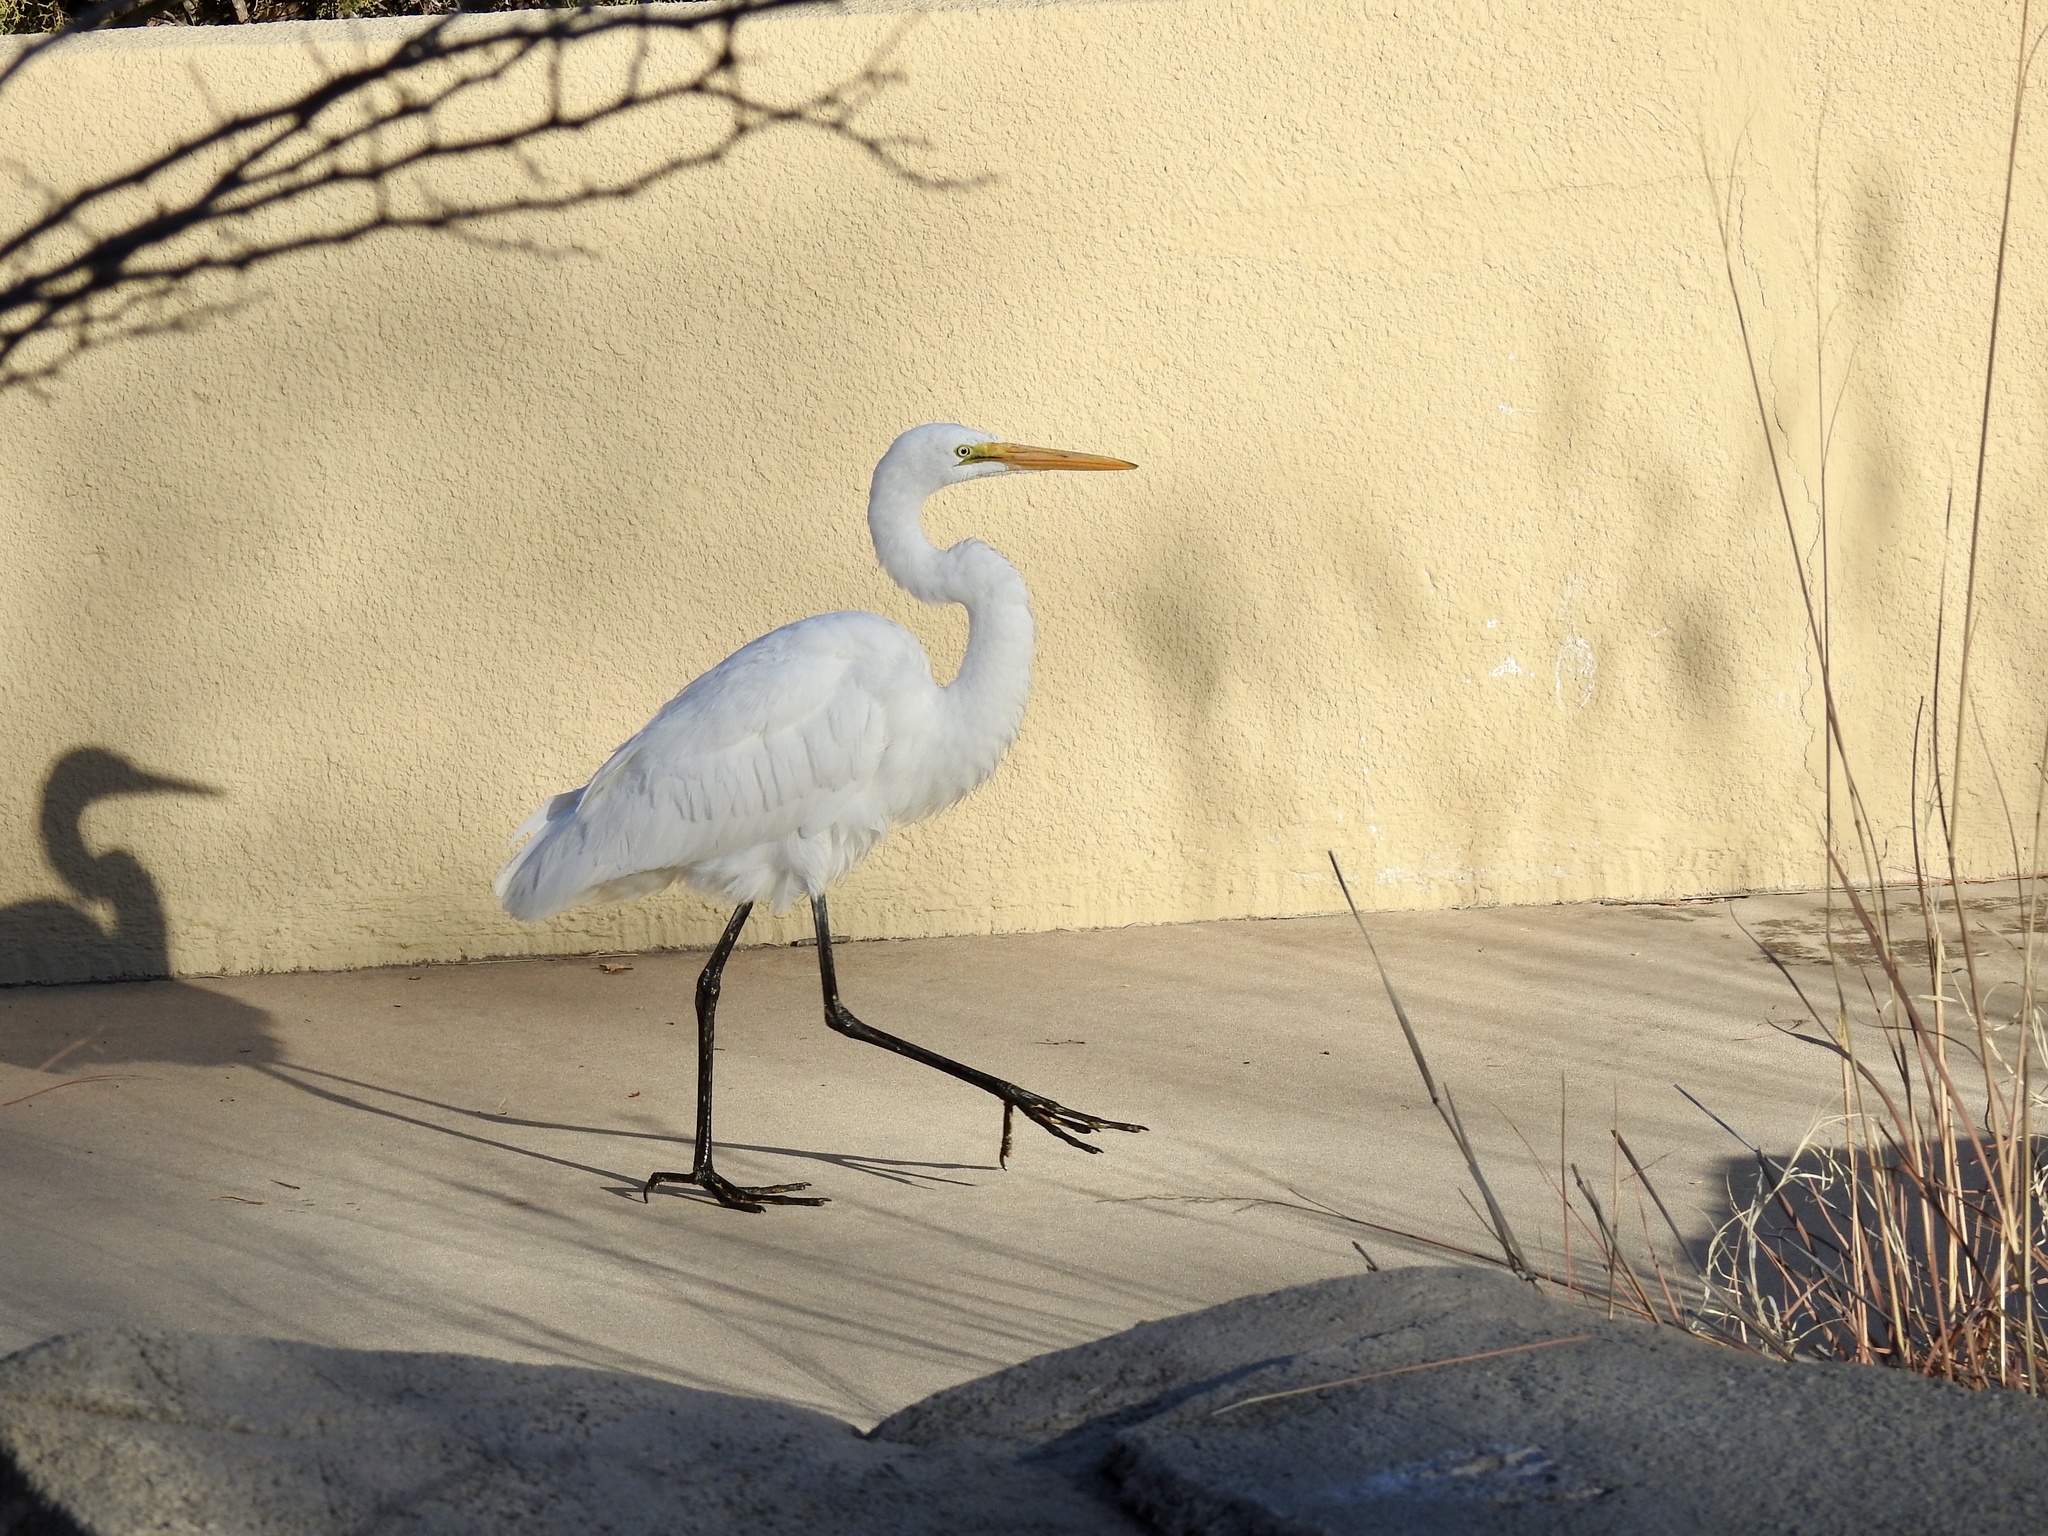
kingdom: Animalia
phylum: Chordata
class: Aves
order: Pelecaniformes
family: Ardeidae
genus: Ardea
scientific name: Ardea alba
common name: Great egret
